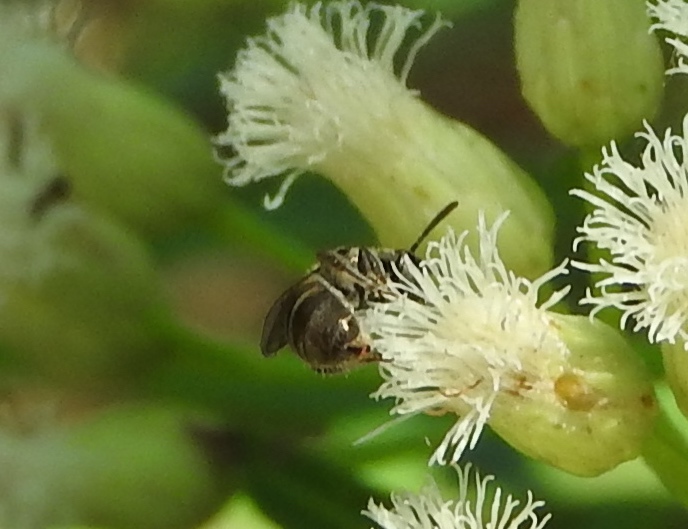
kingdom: Animalia
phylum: Arthropoda
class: Insecta
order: Hymenoptera
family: Halictidae
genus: Lasioglossum
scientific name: Lasioglossum
